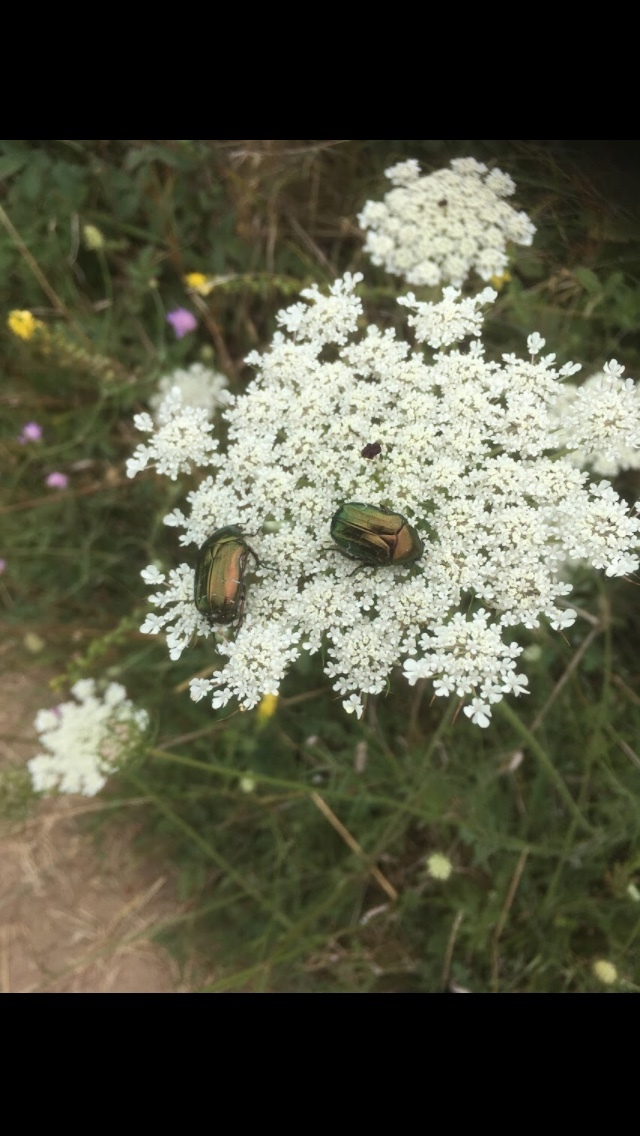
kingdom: Animalia
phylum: Arthropoda
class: Insecta
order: Coleoptera
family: Scarabaeidae
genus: Cetonia
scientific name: Cetonia aurata
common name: Rose chafer
